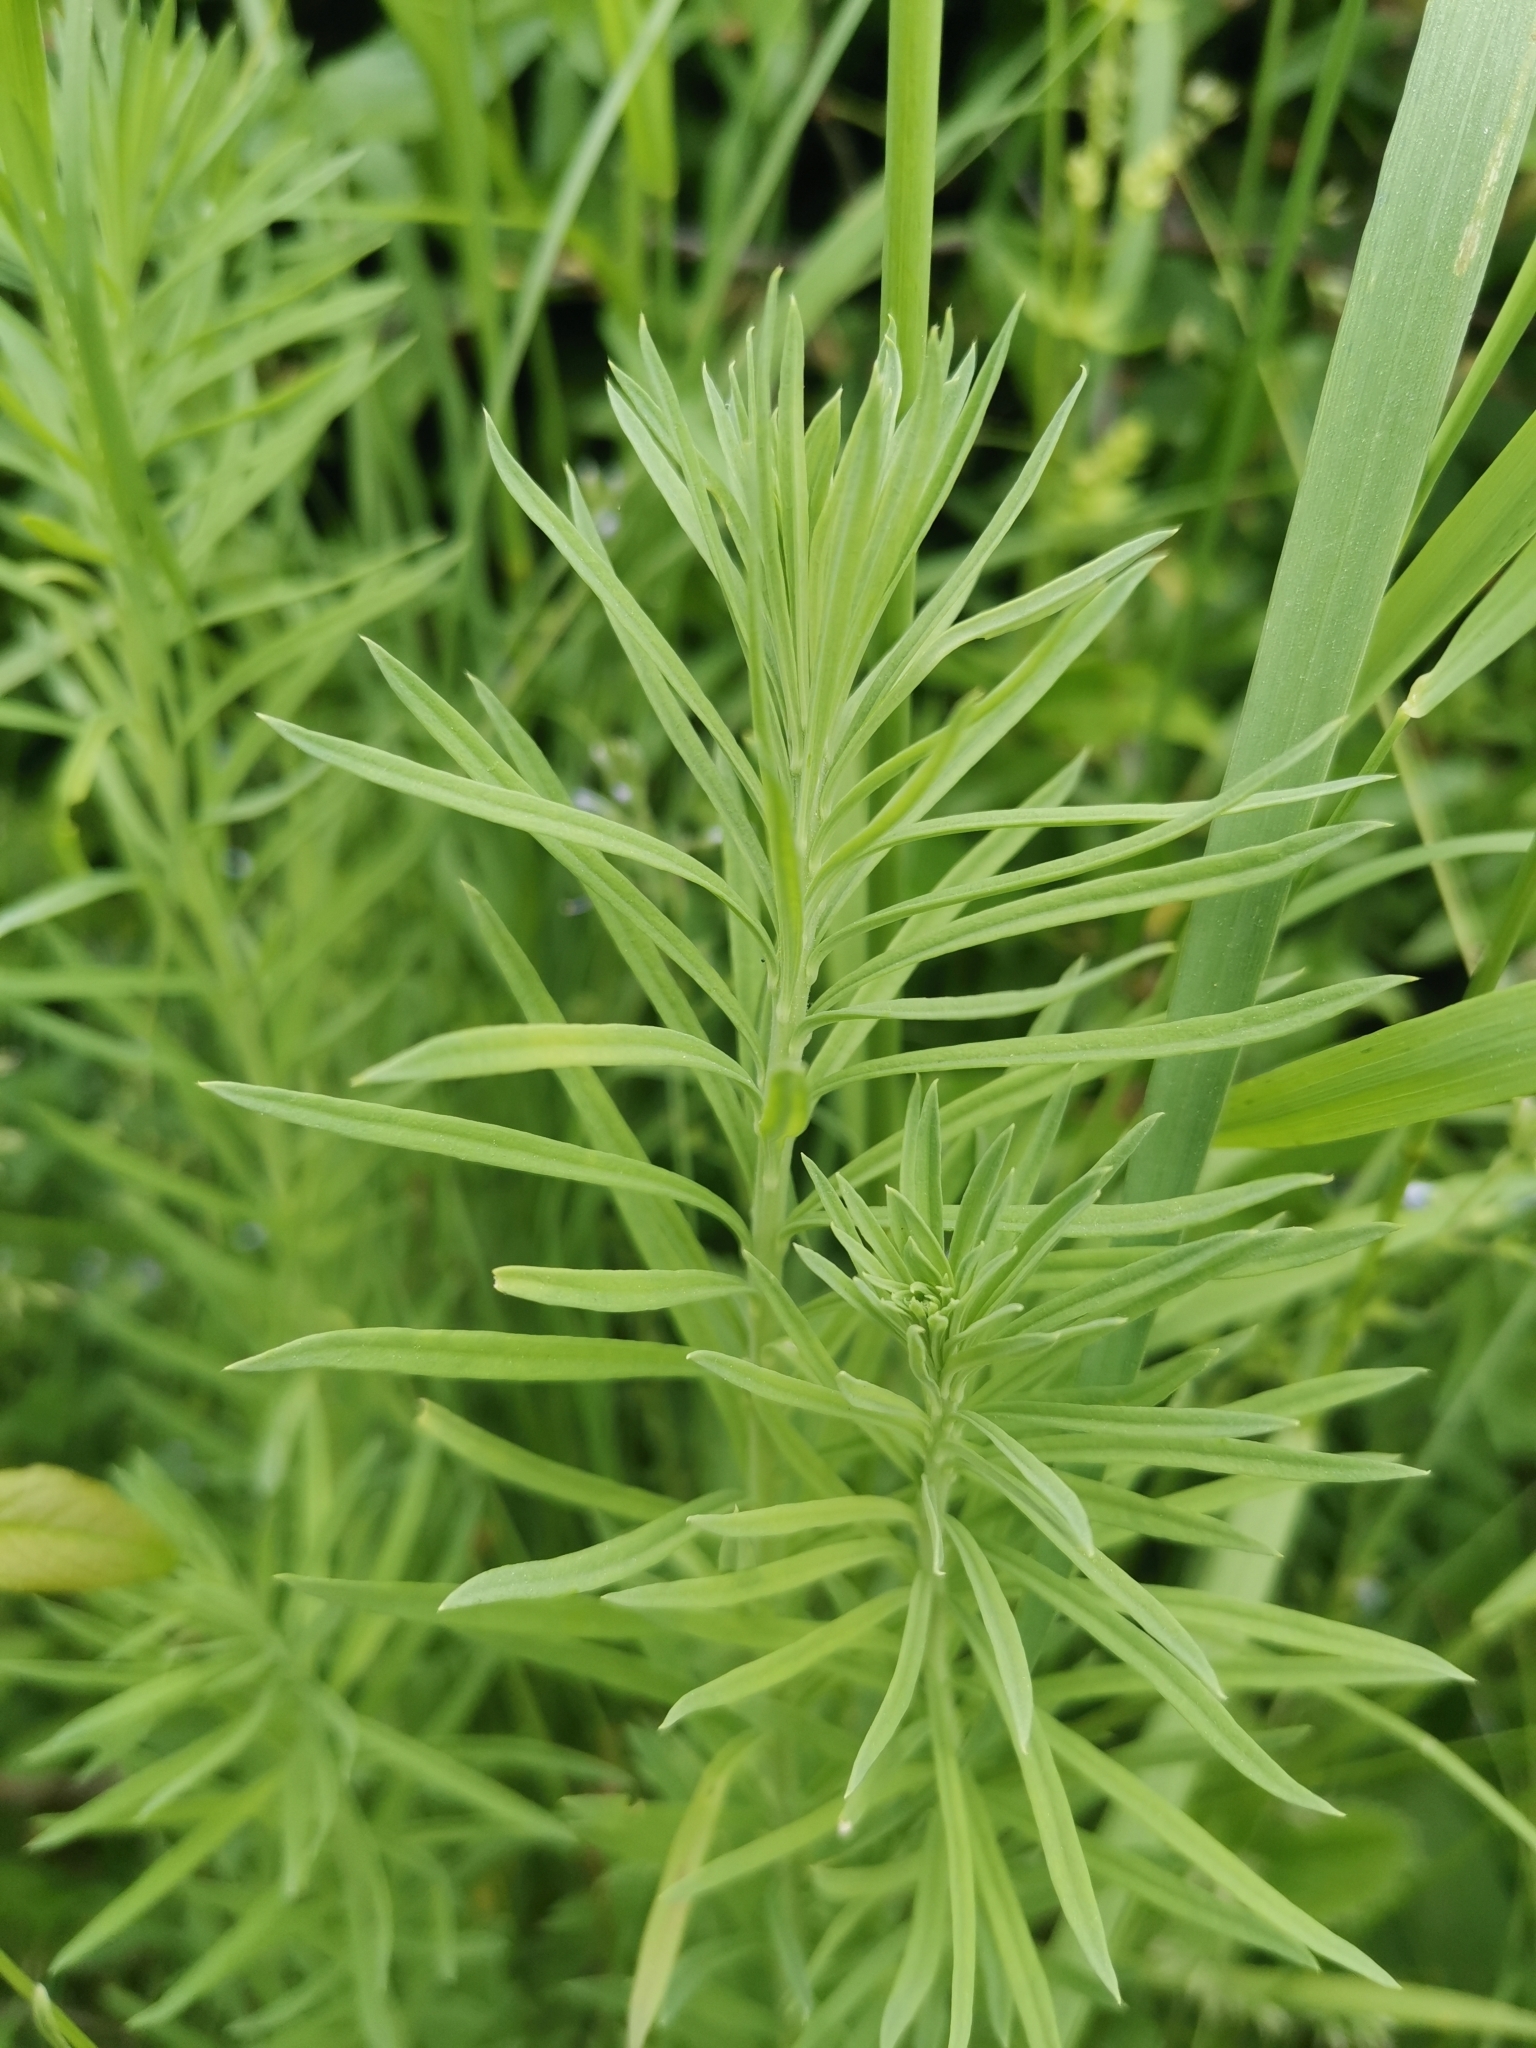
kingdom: Plantae
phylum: Tracheophyta
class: Magnoliopsida
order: Lamiales
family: Plantaginaceae
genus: Linaria
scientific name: Linaria vulgaris
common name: Butter and eggs
